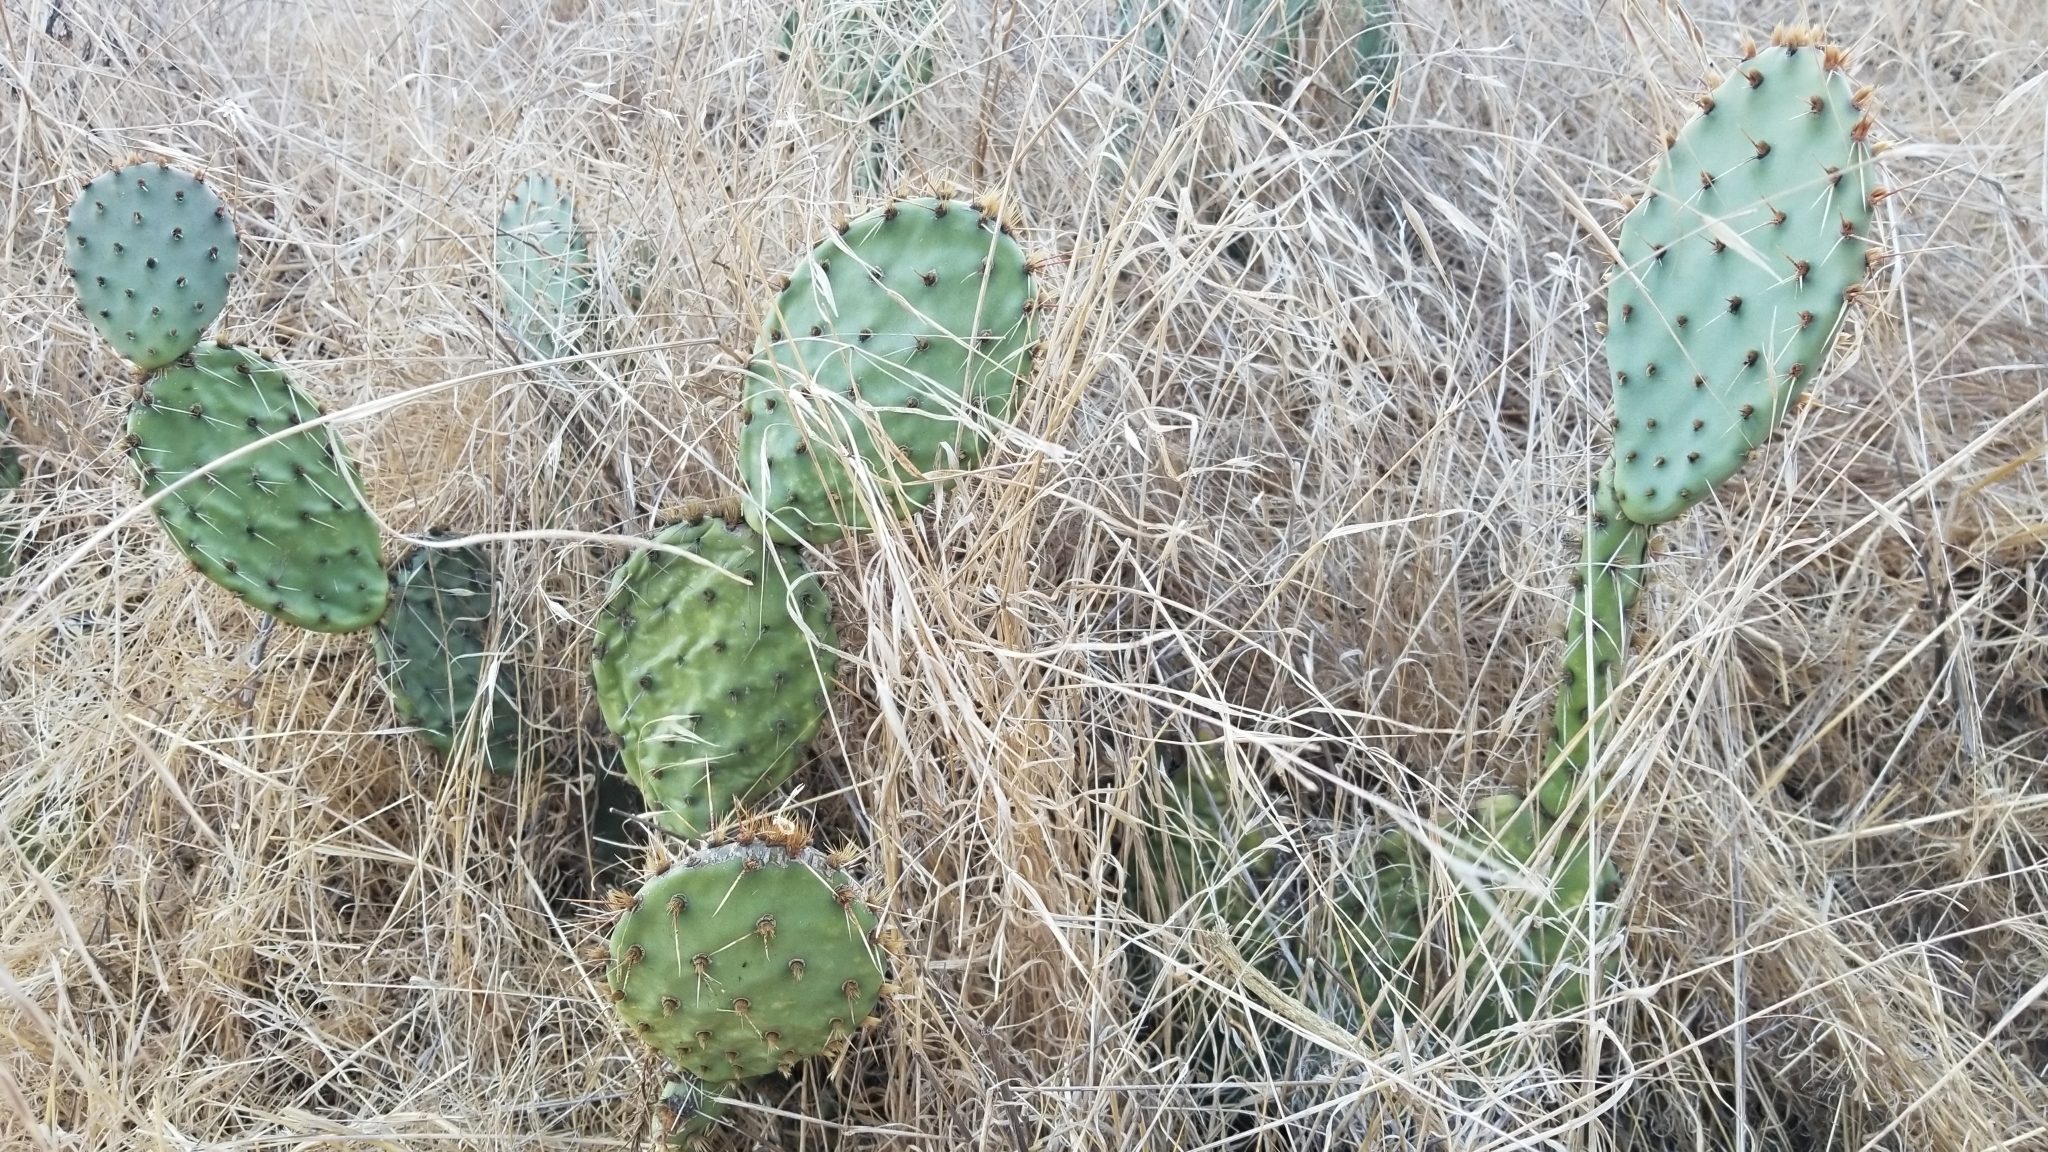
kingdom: Plantae
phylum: Tracheophyta
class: Magnoliopsida
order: Caryophyllales
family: Cactaceae
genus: Opuntia
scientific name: Opuntia littoralis
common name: Coastal prickly-pear
